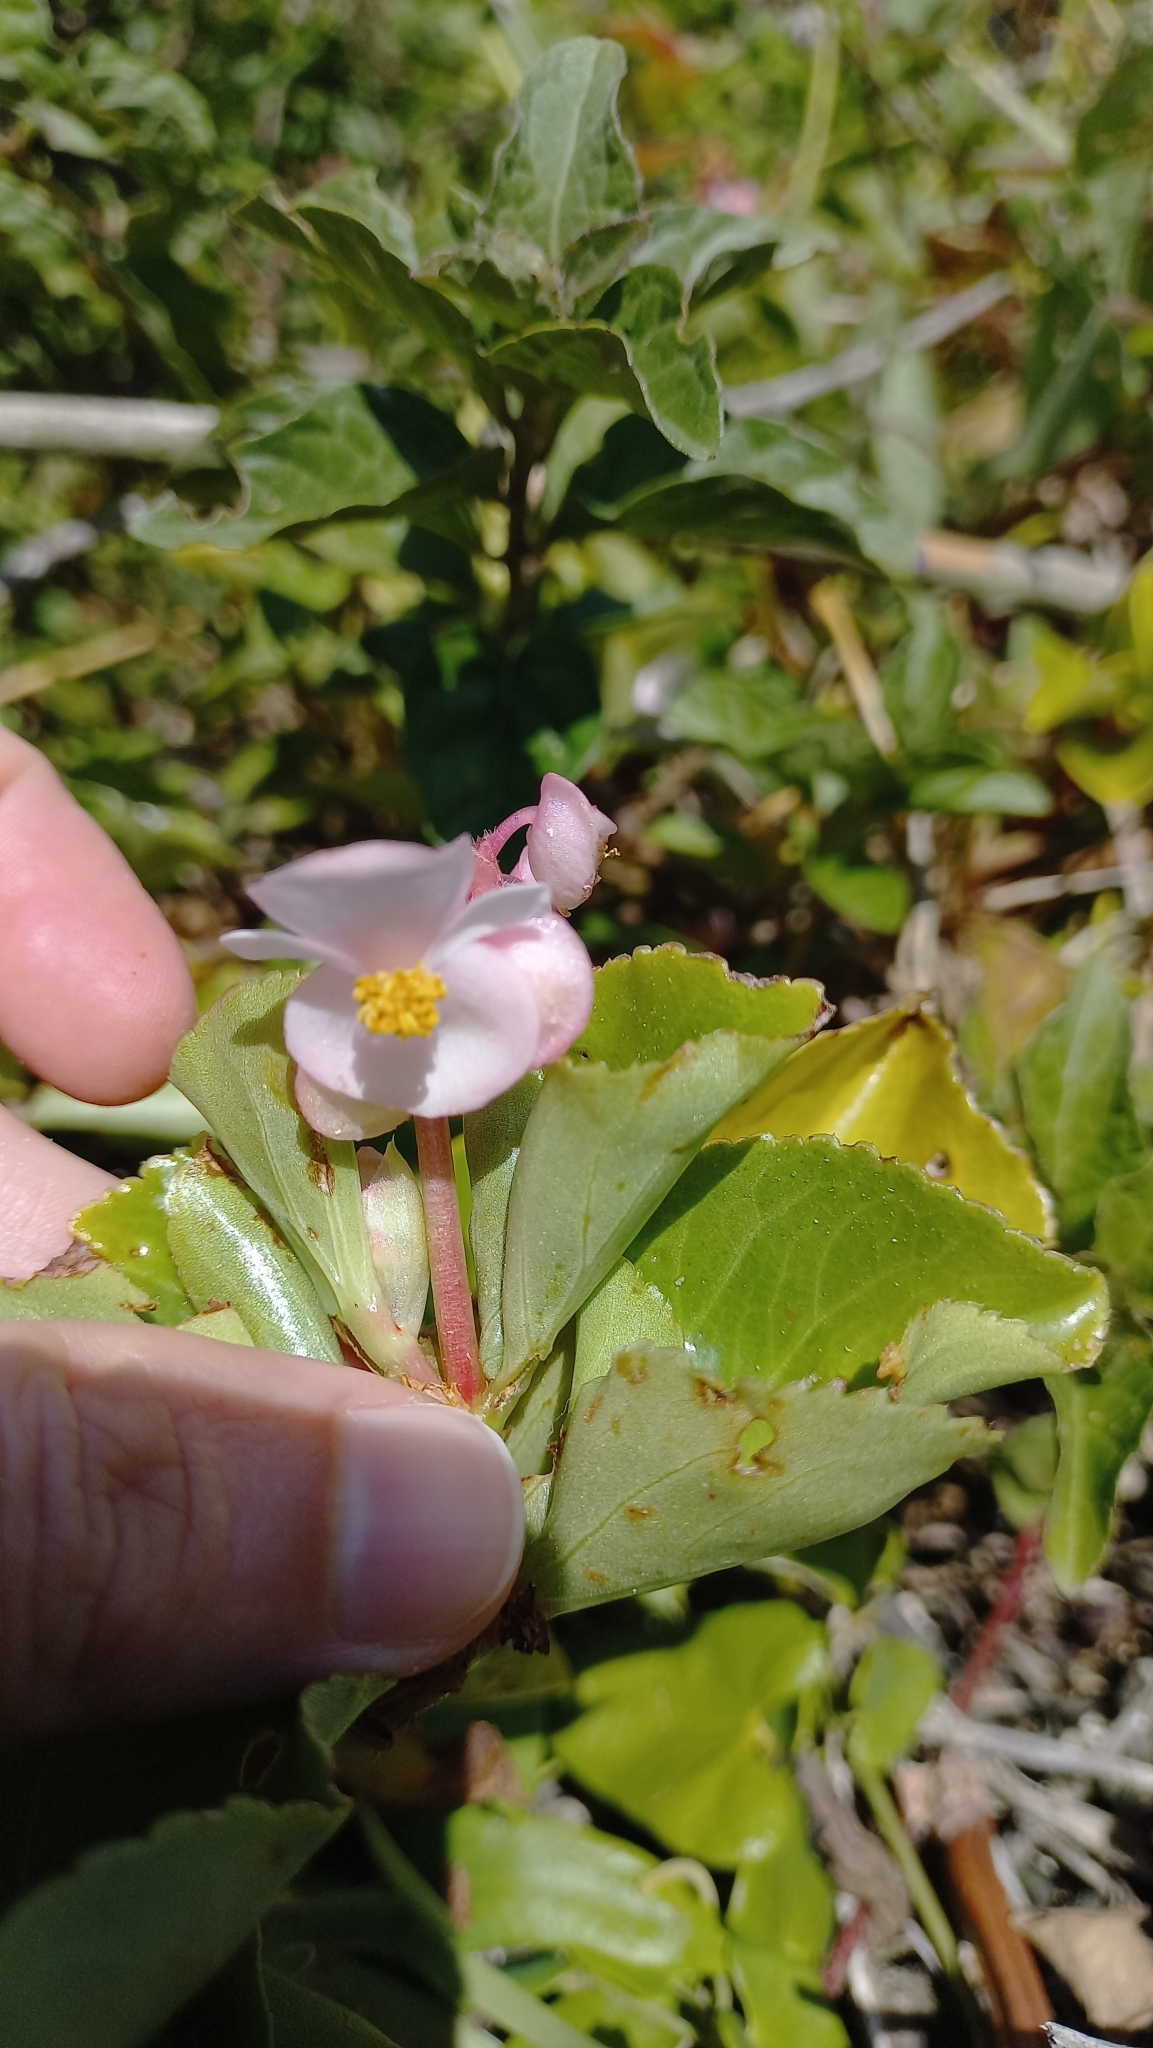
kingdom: Plantae
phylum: Tracheophyta
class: Magnoliopsida
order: Cucurbitales
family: Begoniaceae
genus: Begonia
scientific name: Begonia cucullata
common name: Clubbed begonia
